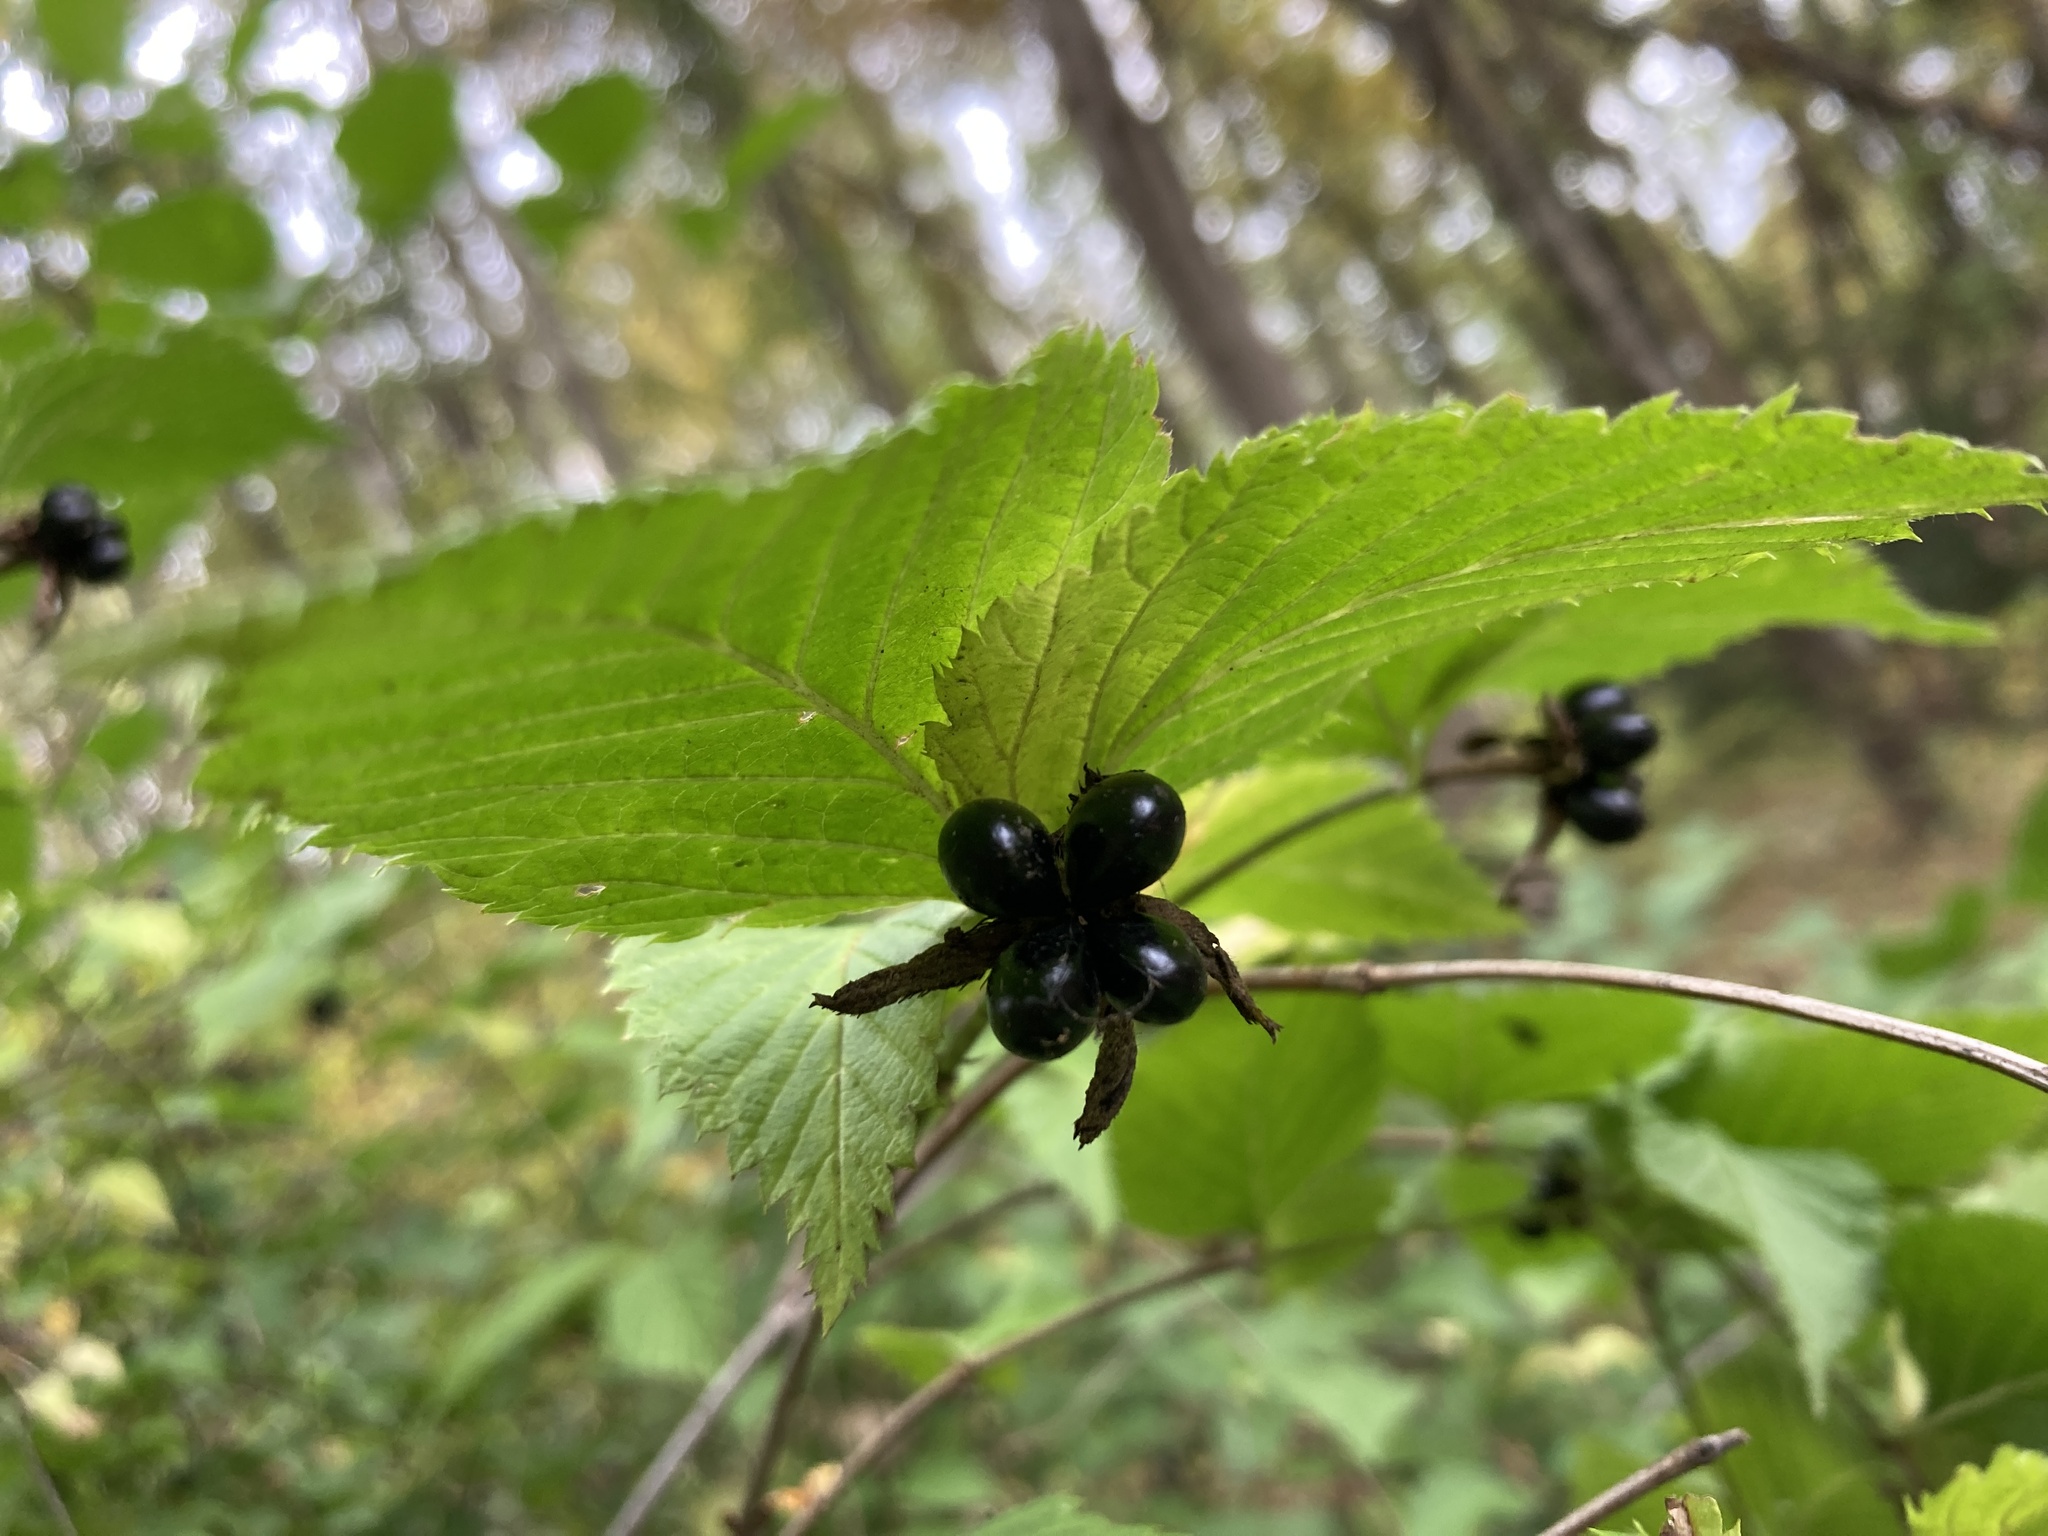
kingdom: Plantae
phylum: Tracheophyta
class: Magnoliopsida
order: Rosales
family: Rosaceae
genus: Rhodotypos
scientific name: Rhodotypos scandens
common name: Jetbead
